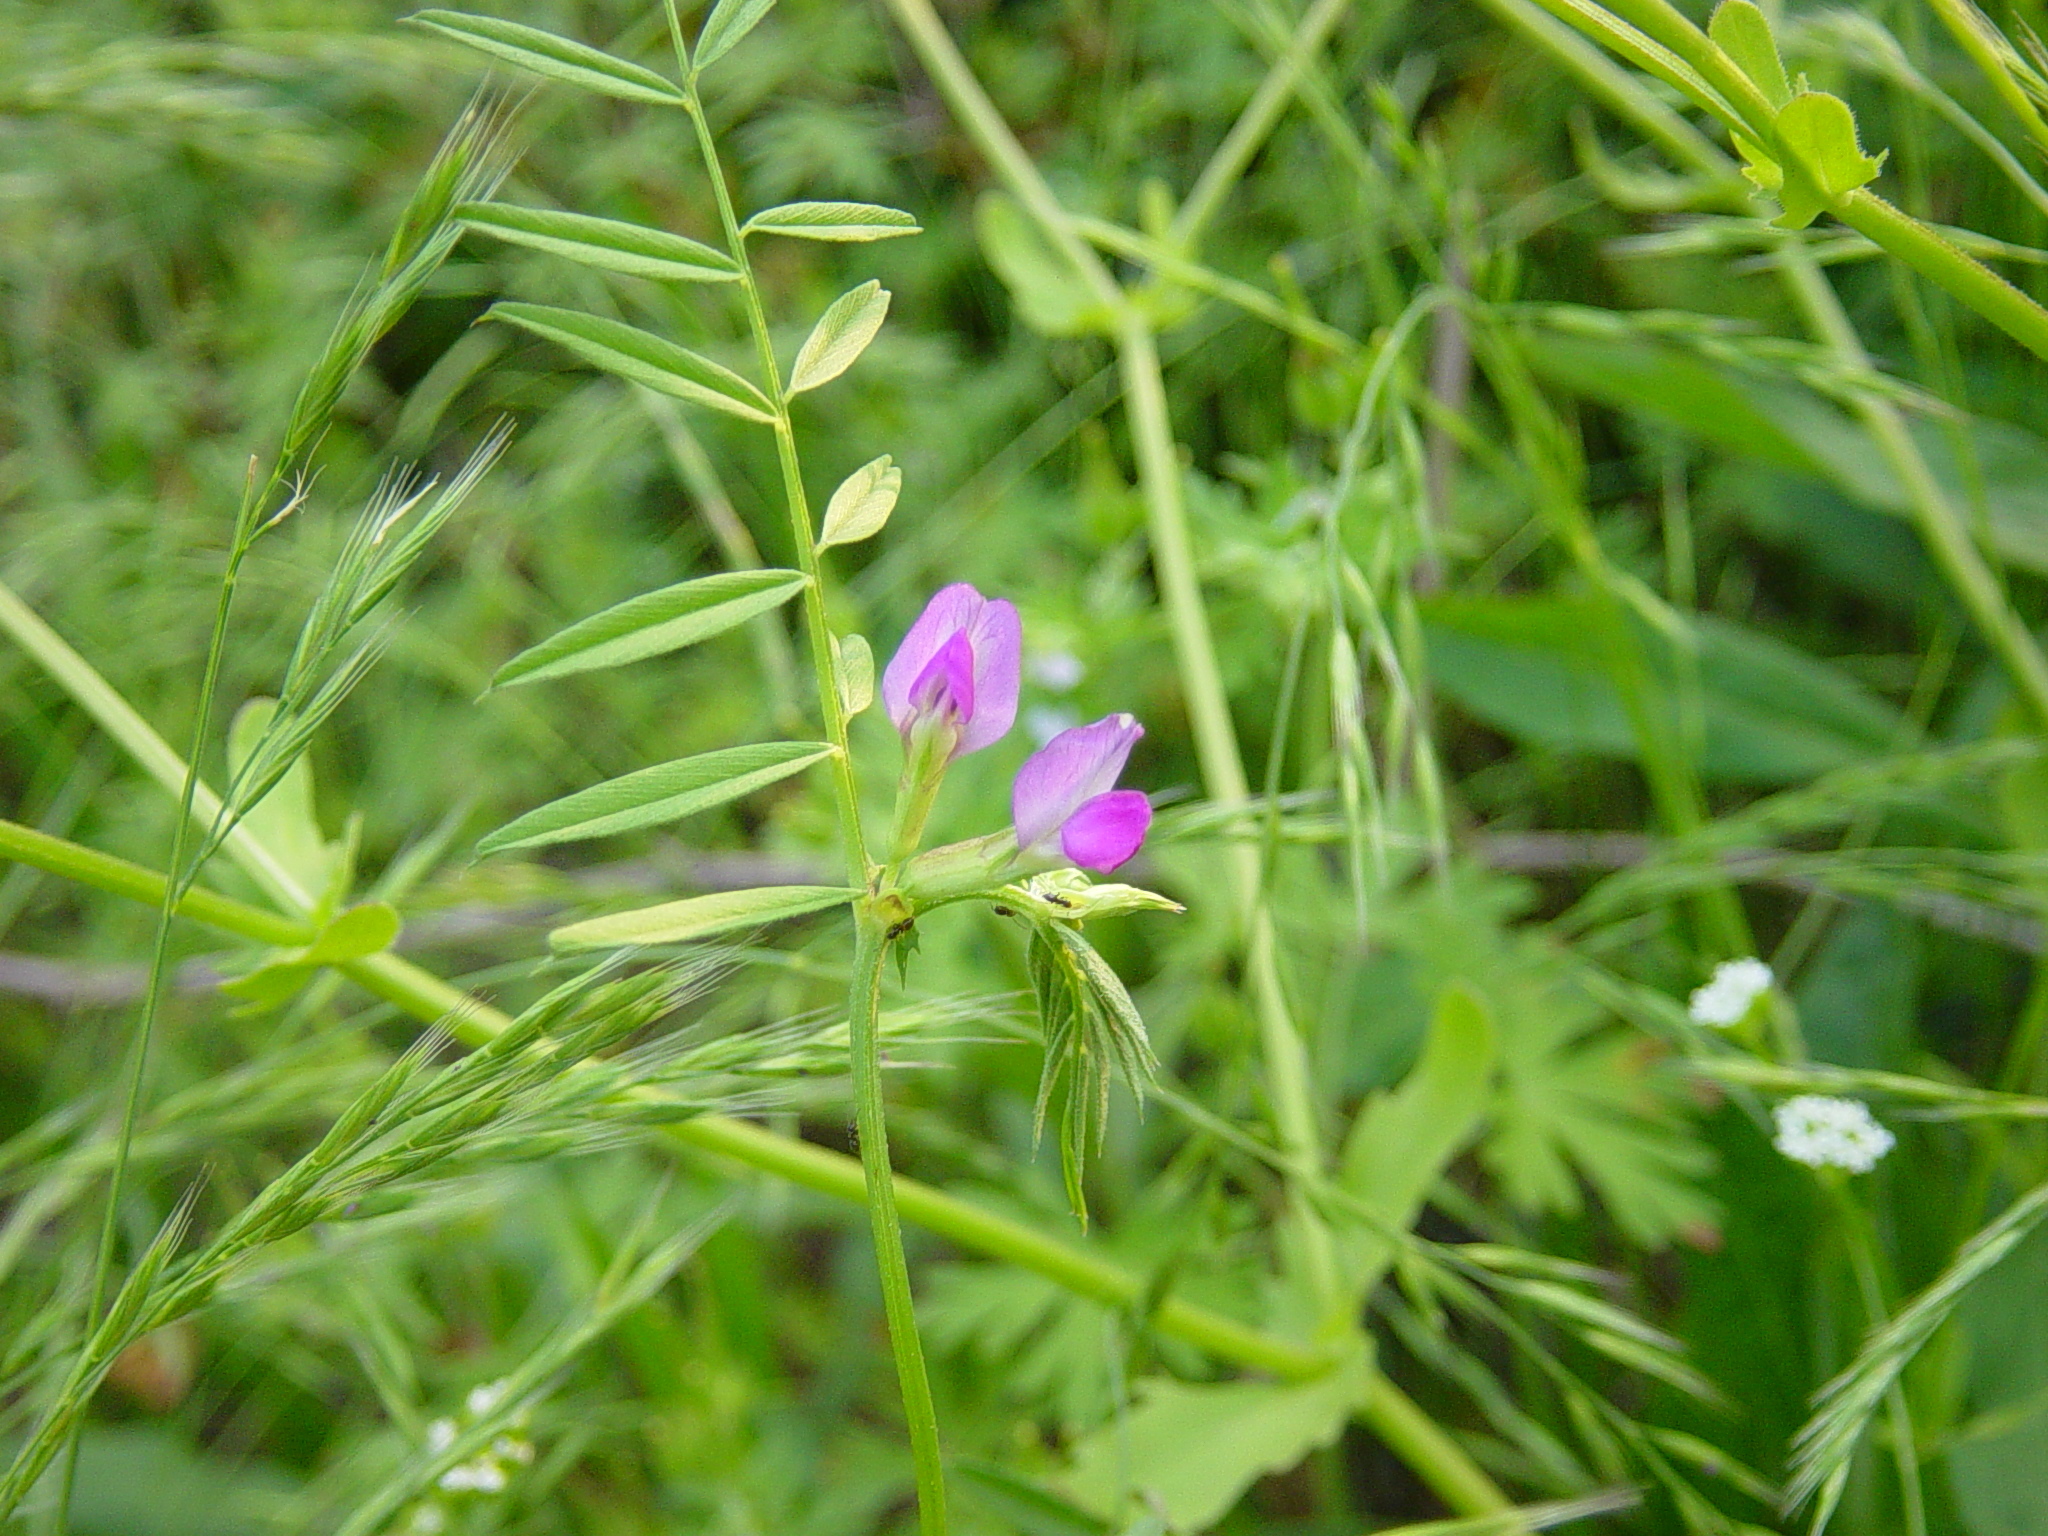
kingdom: Plantae
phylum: Tracheophyta
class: Magnoliopsida
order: Fabales
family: Fabaceae
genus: Vicia
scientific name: Vicia sativa
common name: Garden vetch
